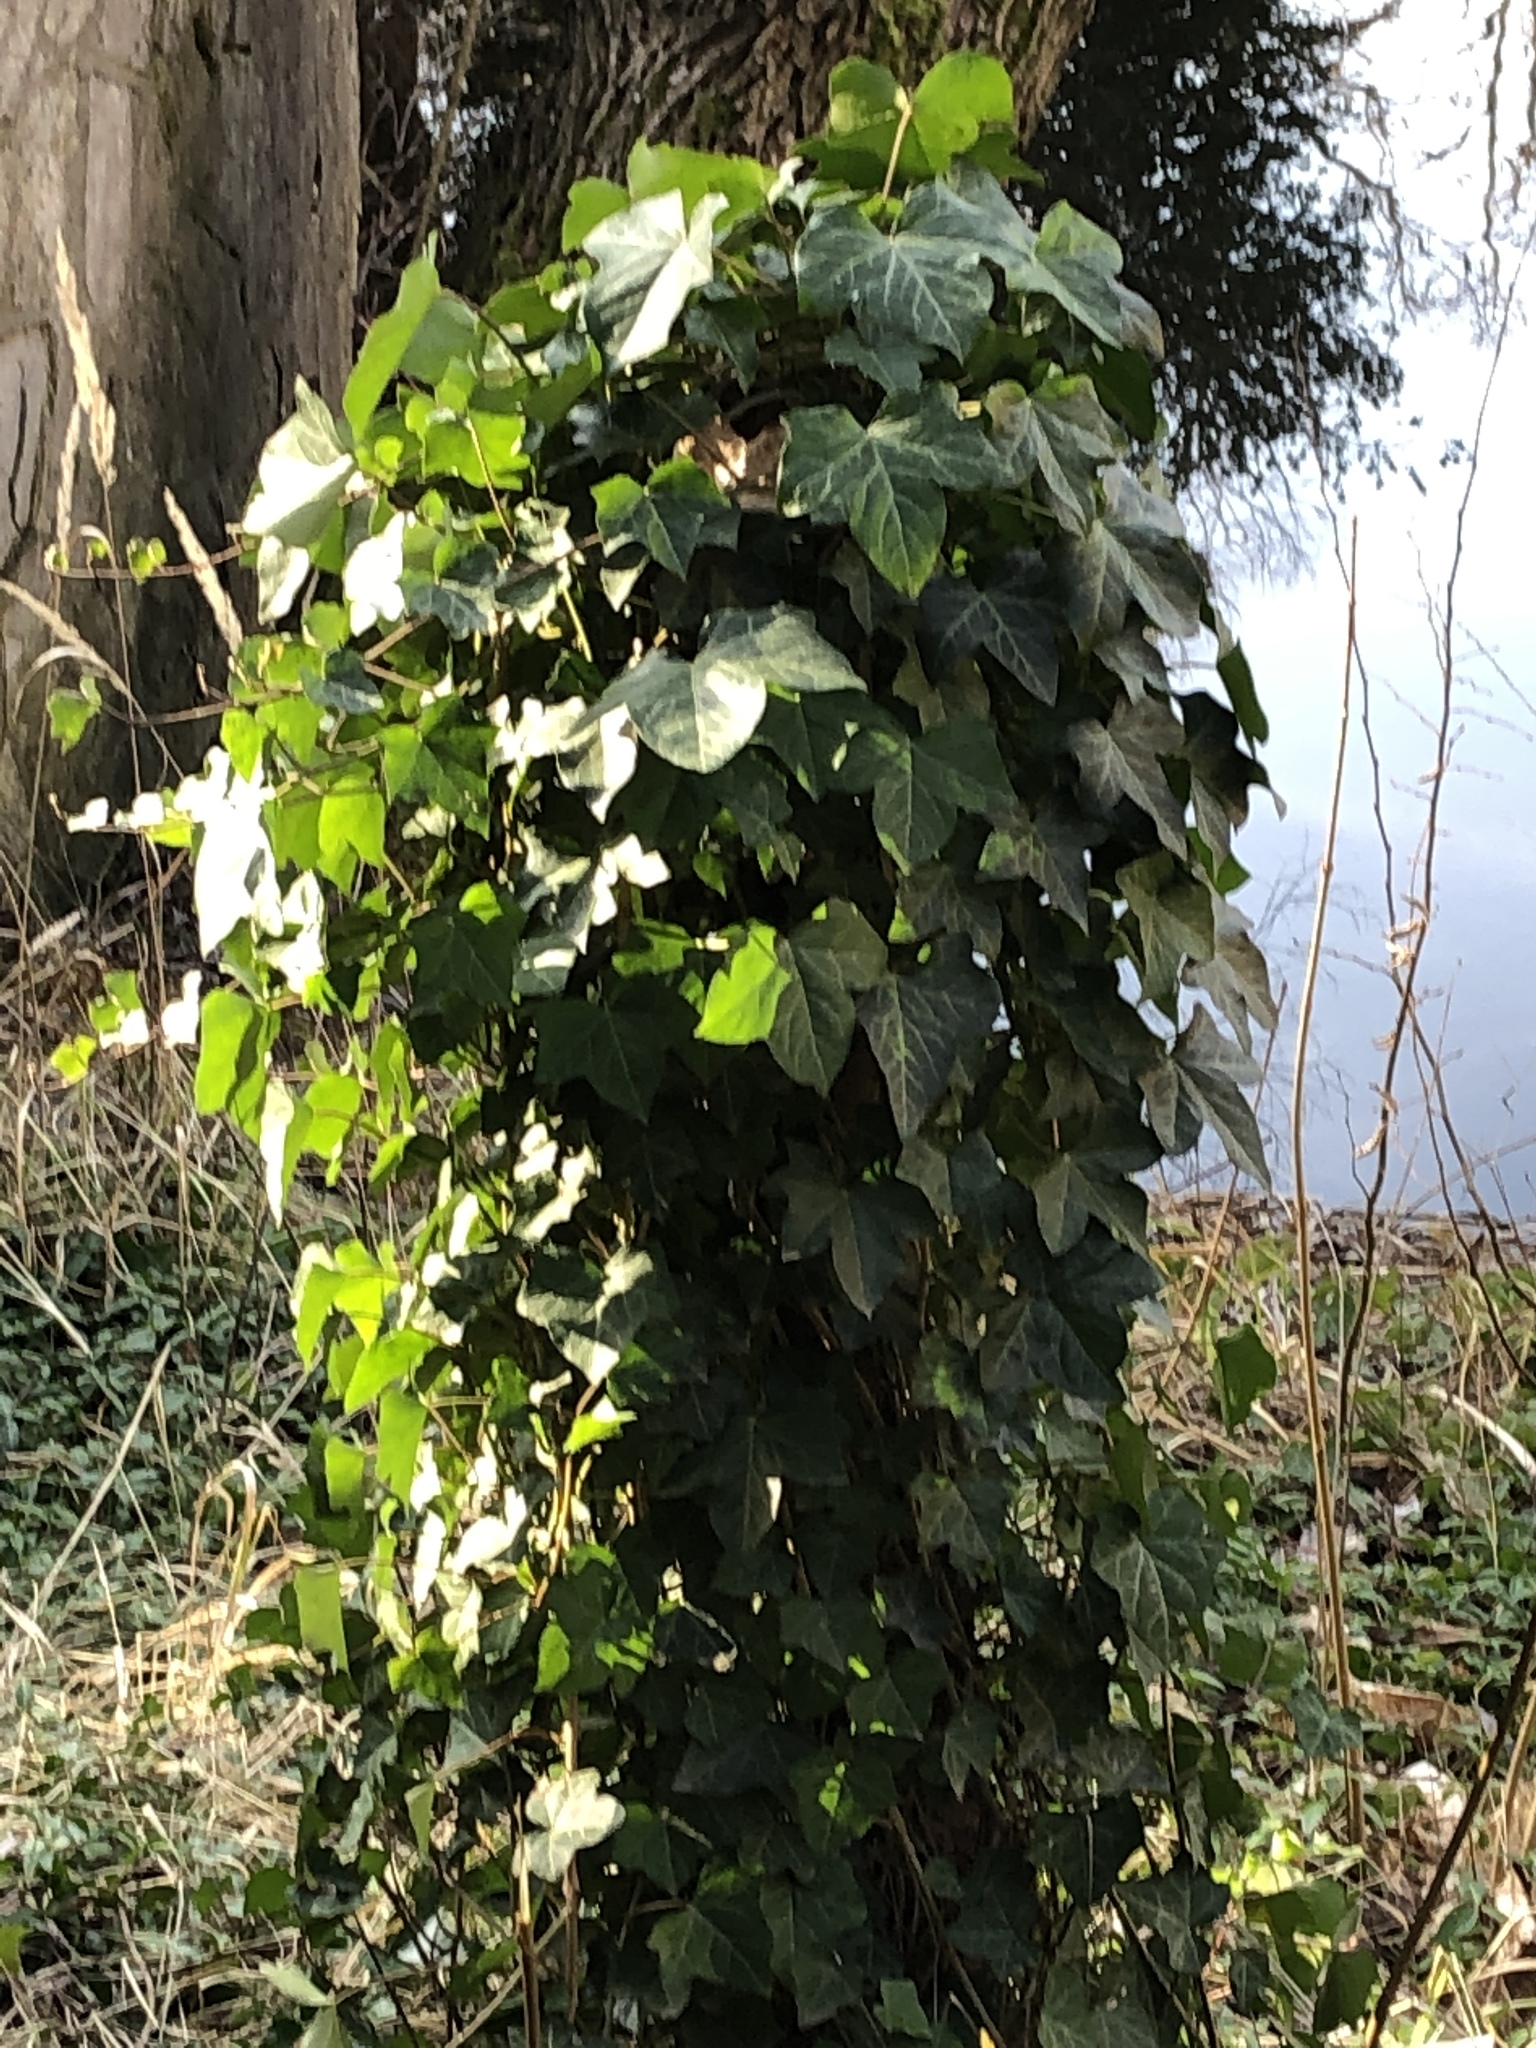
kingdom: Plantae
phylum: Tracheophyta
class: Magnoliopsida
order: Apiales
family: Araliaceae
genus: Hedera
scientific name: Hedera helix
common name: Ivy
